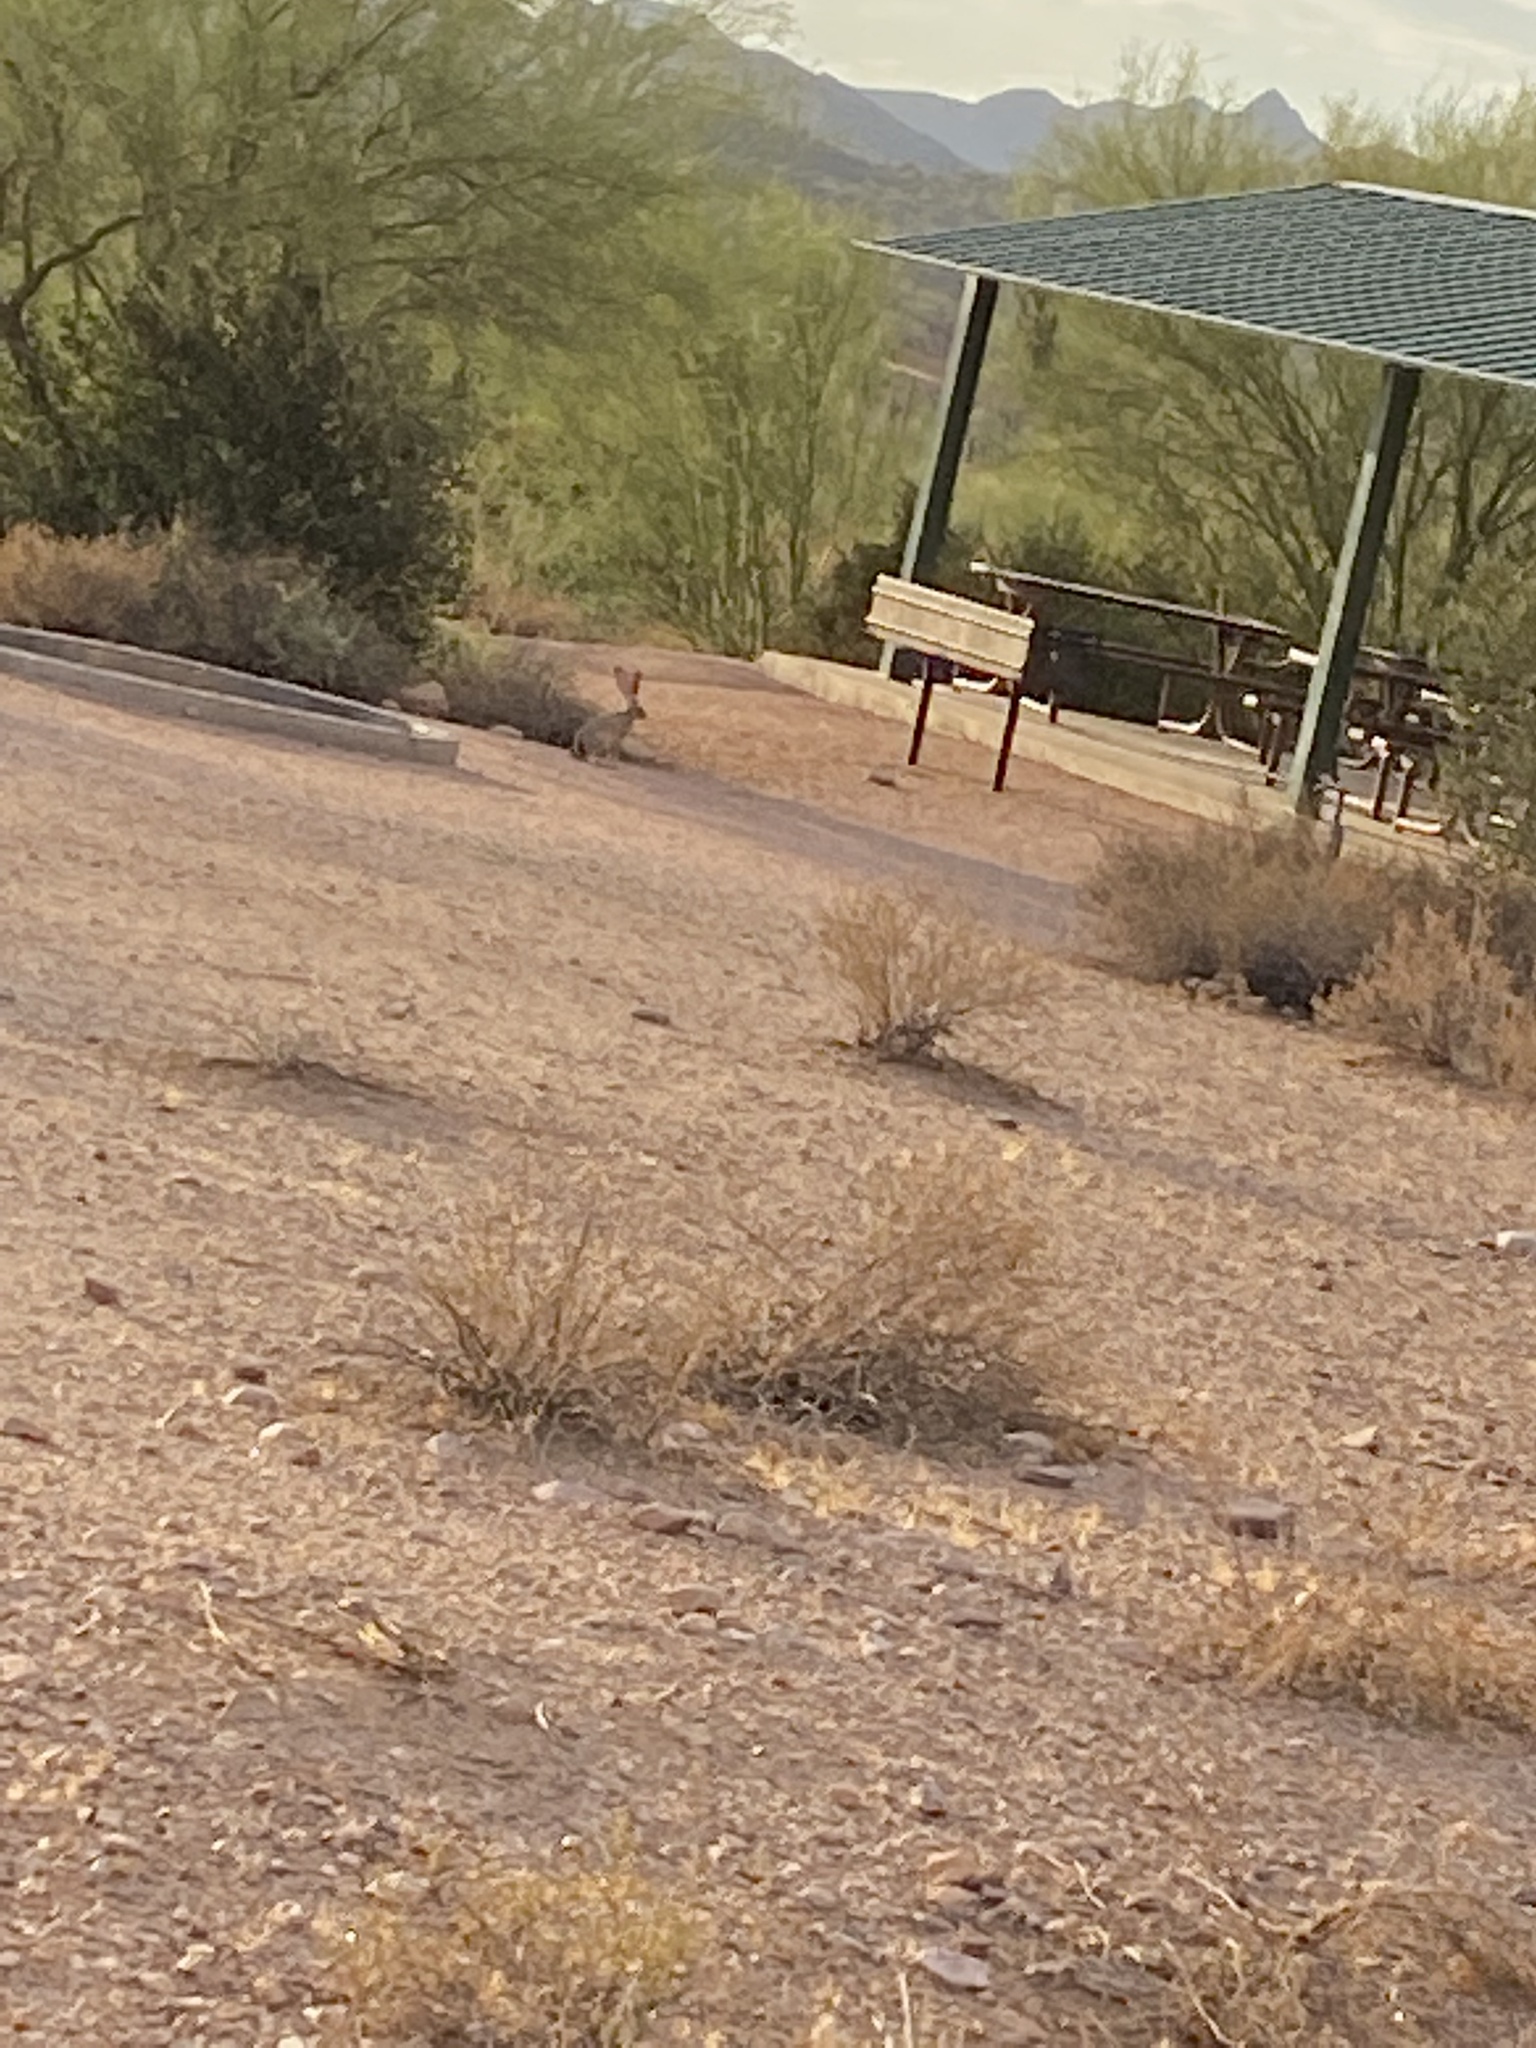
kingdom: Animalia
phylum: Chordata
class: Mammalia
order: Lagomorpha
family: Leporidae
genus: Lepus
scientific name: Lepus californicus
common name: Black-tailed jackrabbit
